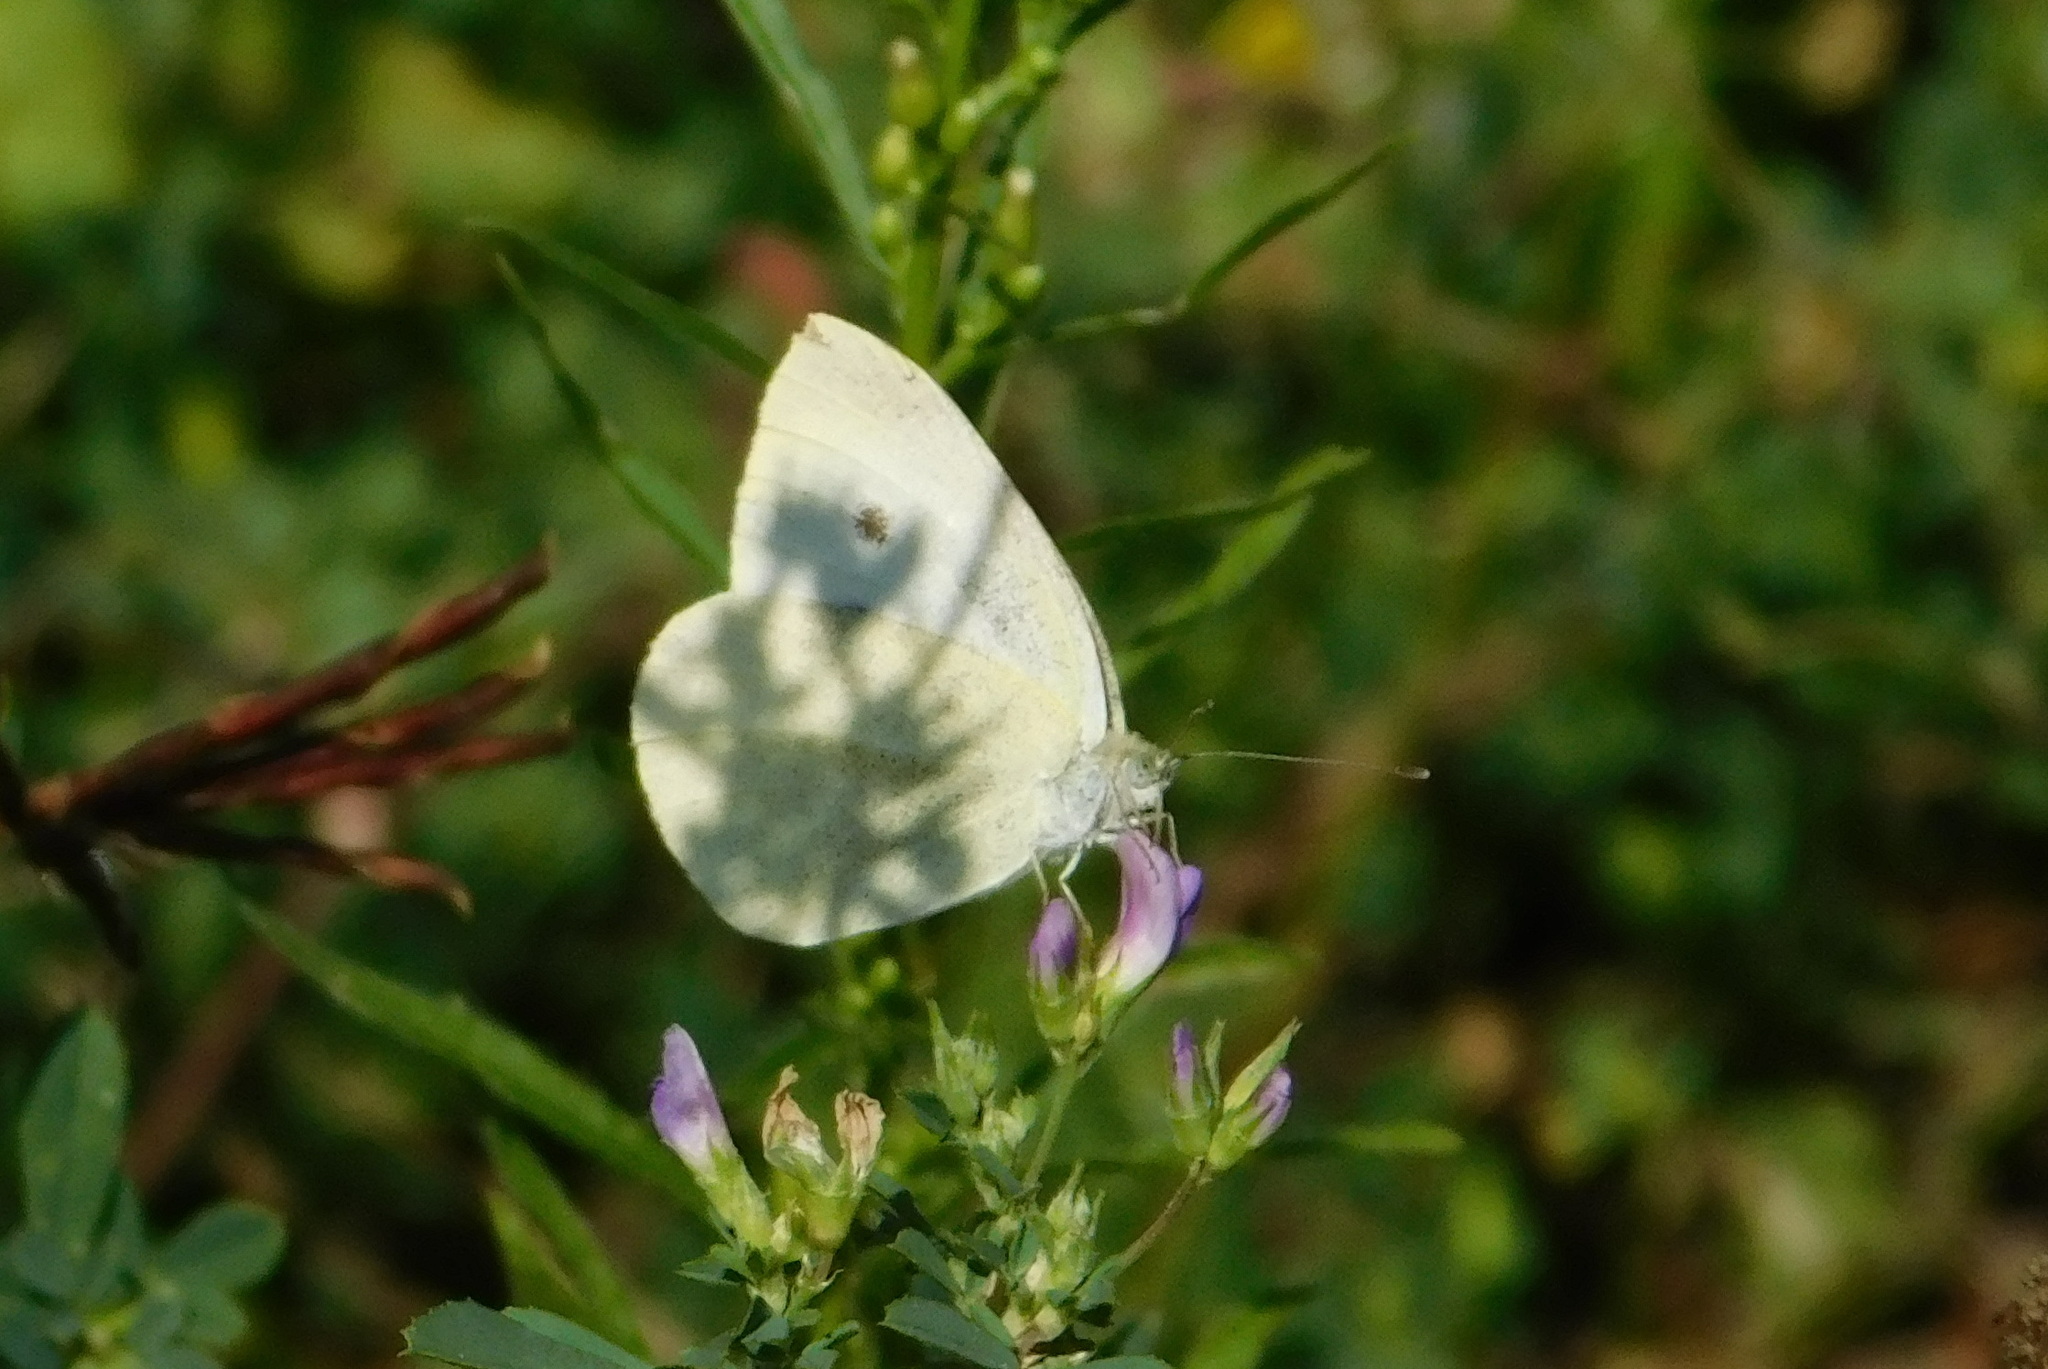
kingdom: Animalia
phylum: Arthropoda
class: Insecta
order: Lepidoptera
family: Pieridae
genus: Pieris
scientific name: Pieris rapae
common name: Small white
